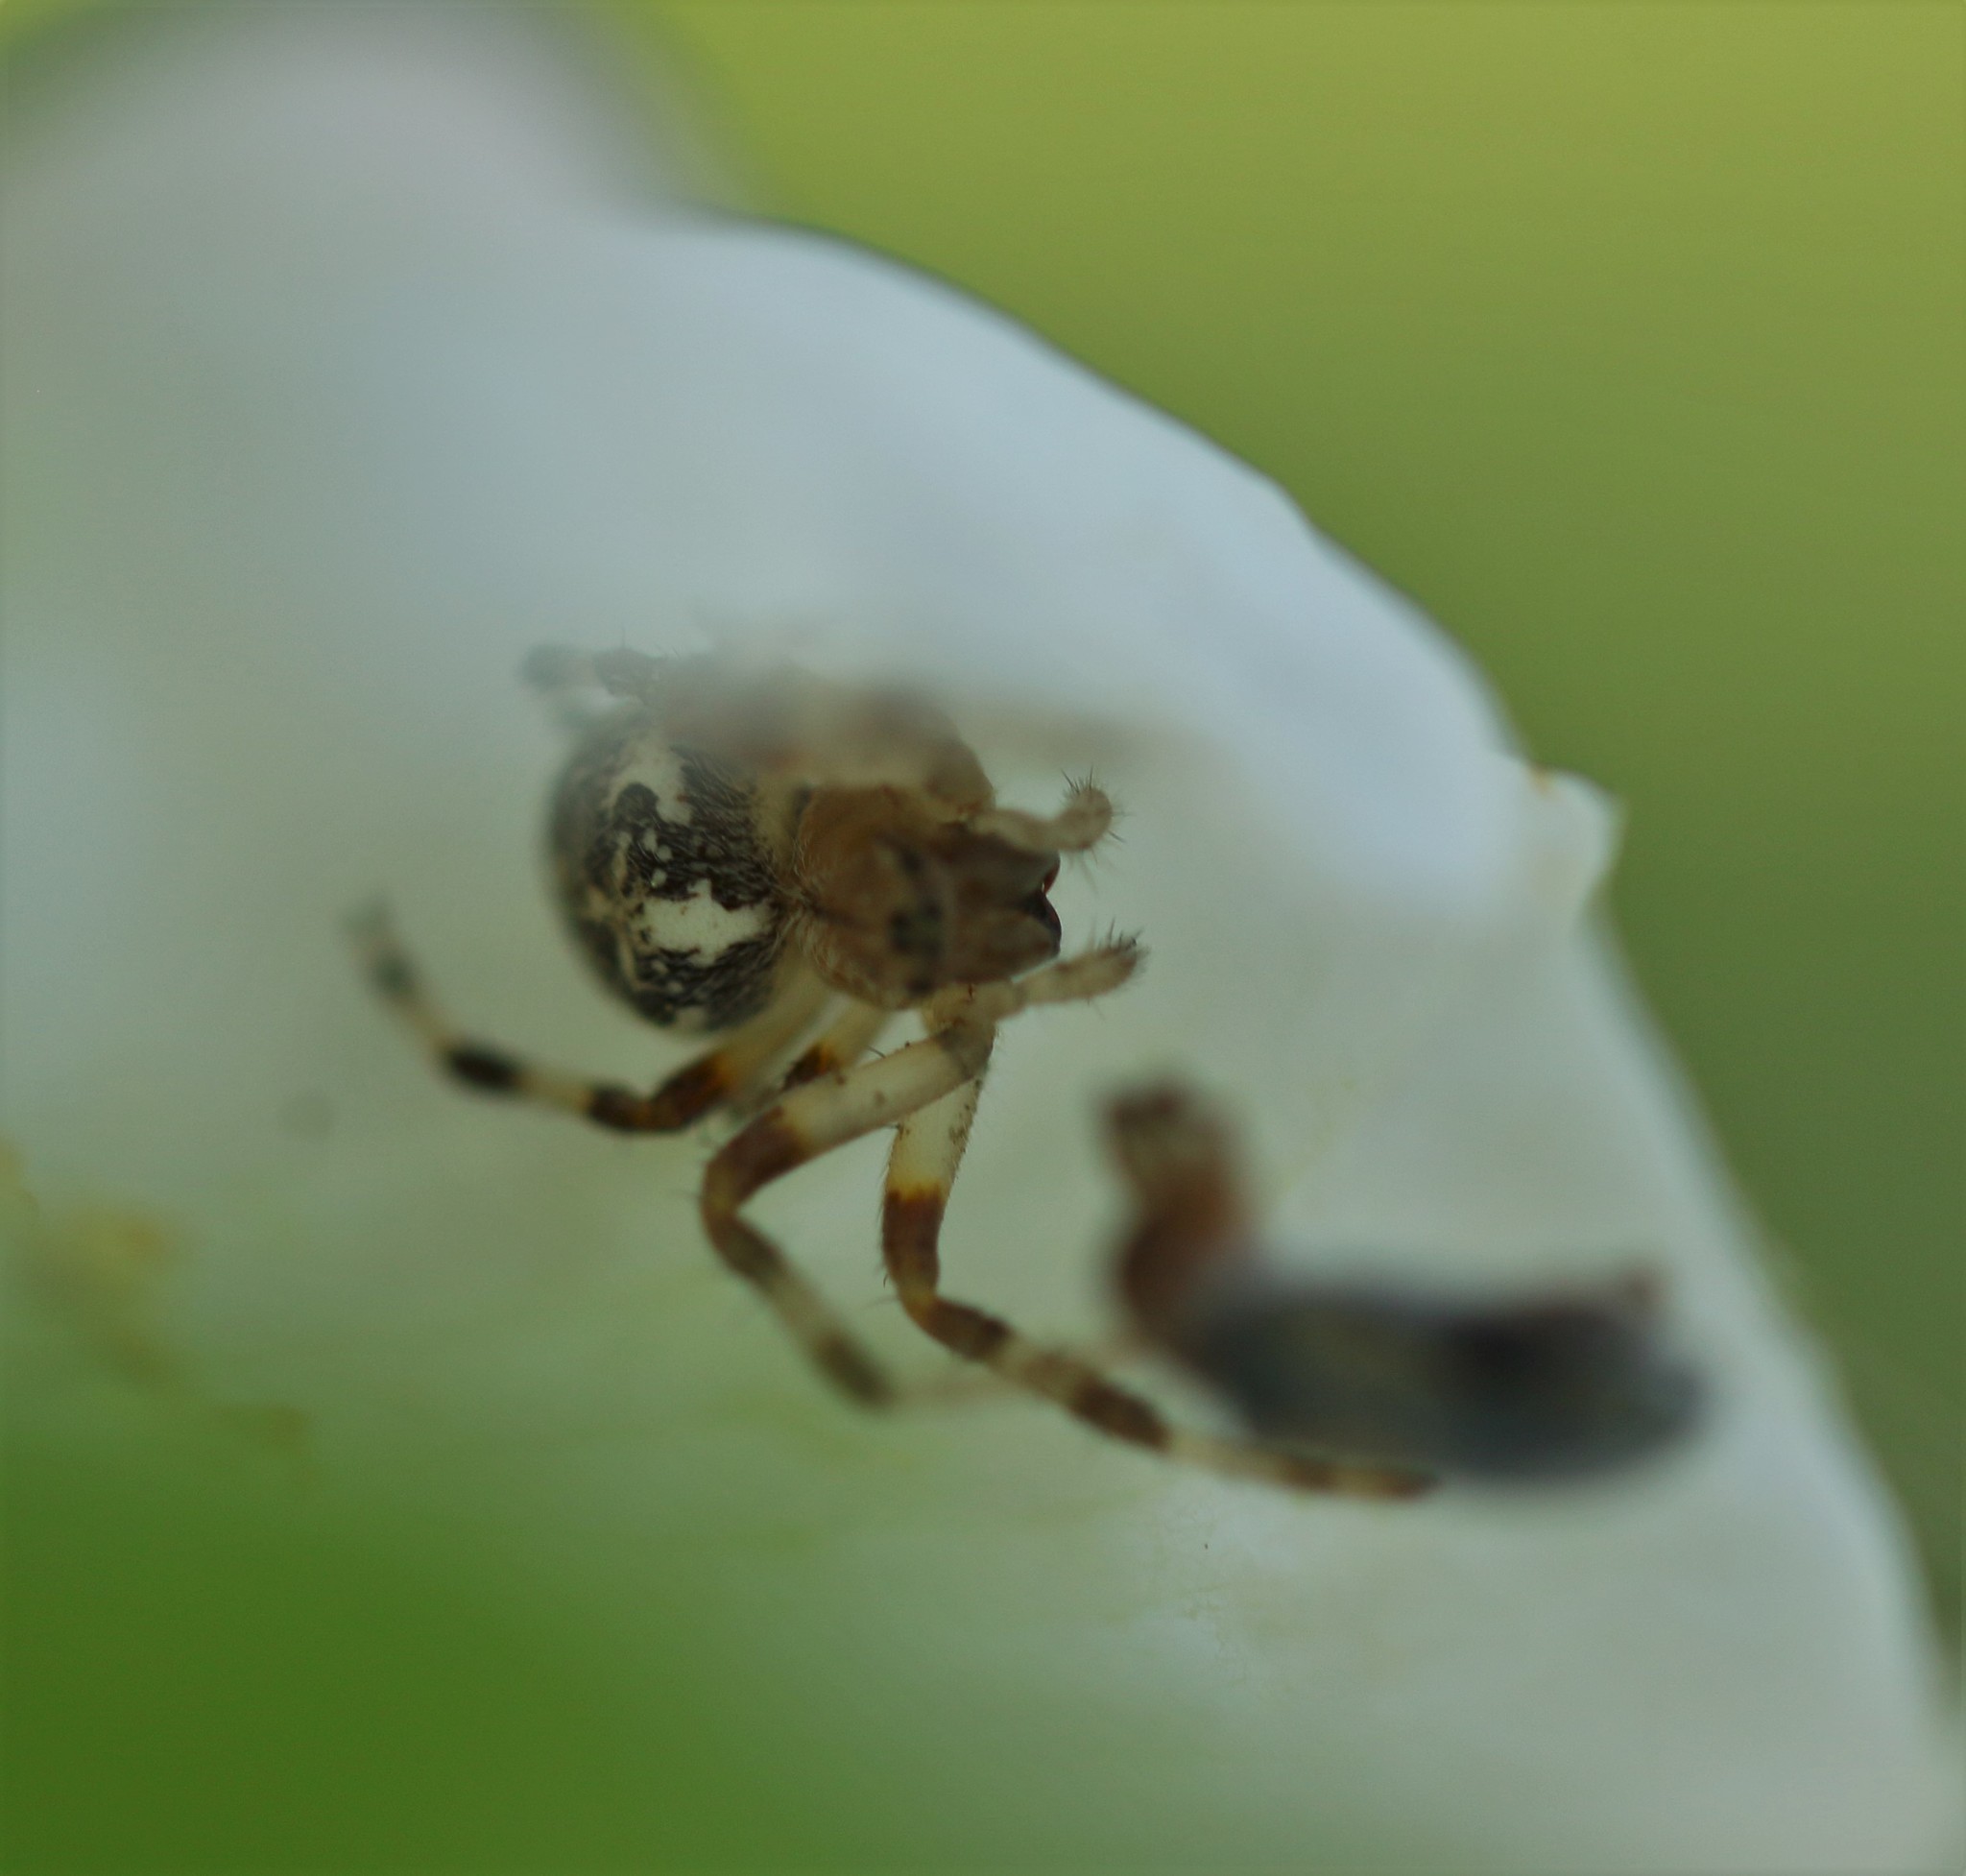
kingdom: Animalia
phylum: Arthropoda
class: Arachnida
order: Araneae
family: Araneidae
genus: Araneus
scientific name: Araneus marmoreus
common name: Marbled orbweaver
